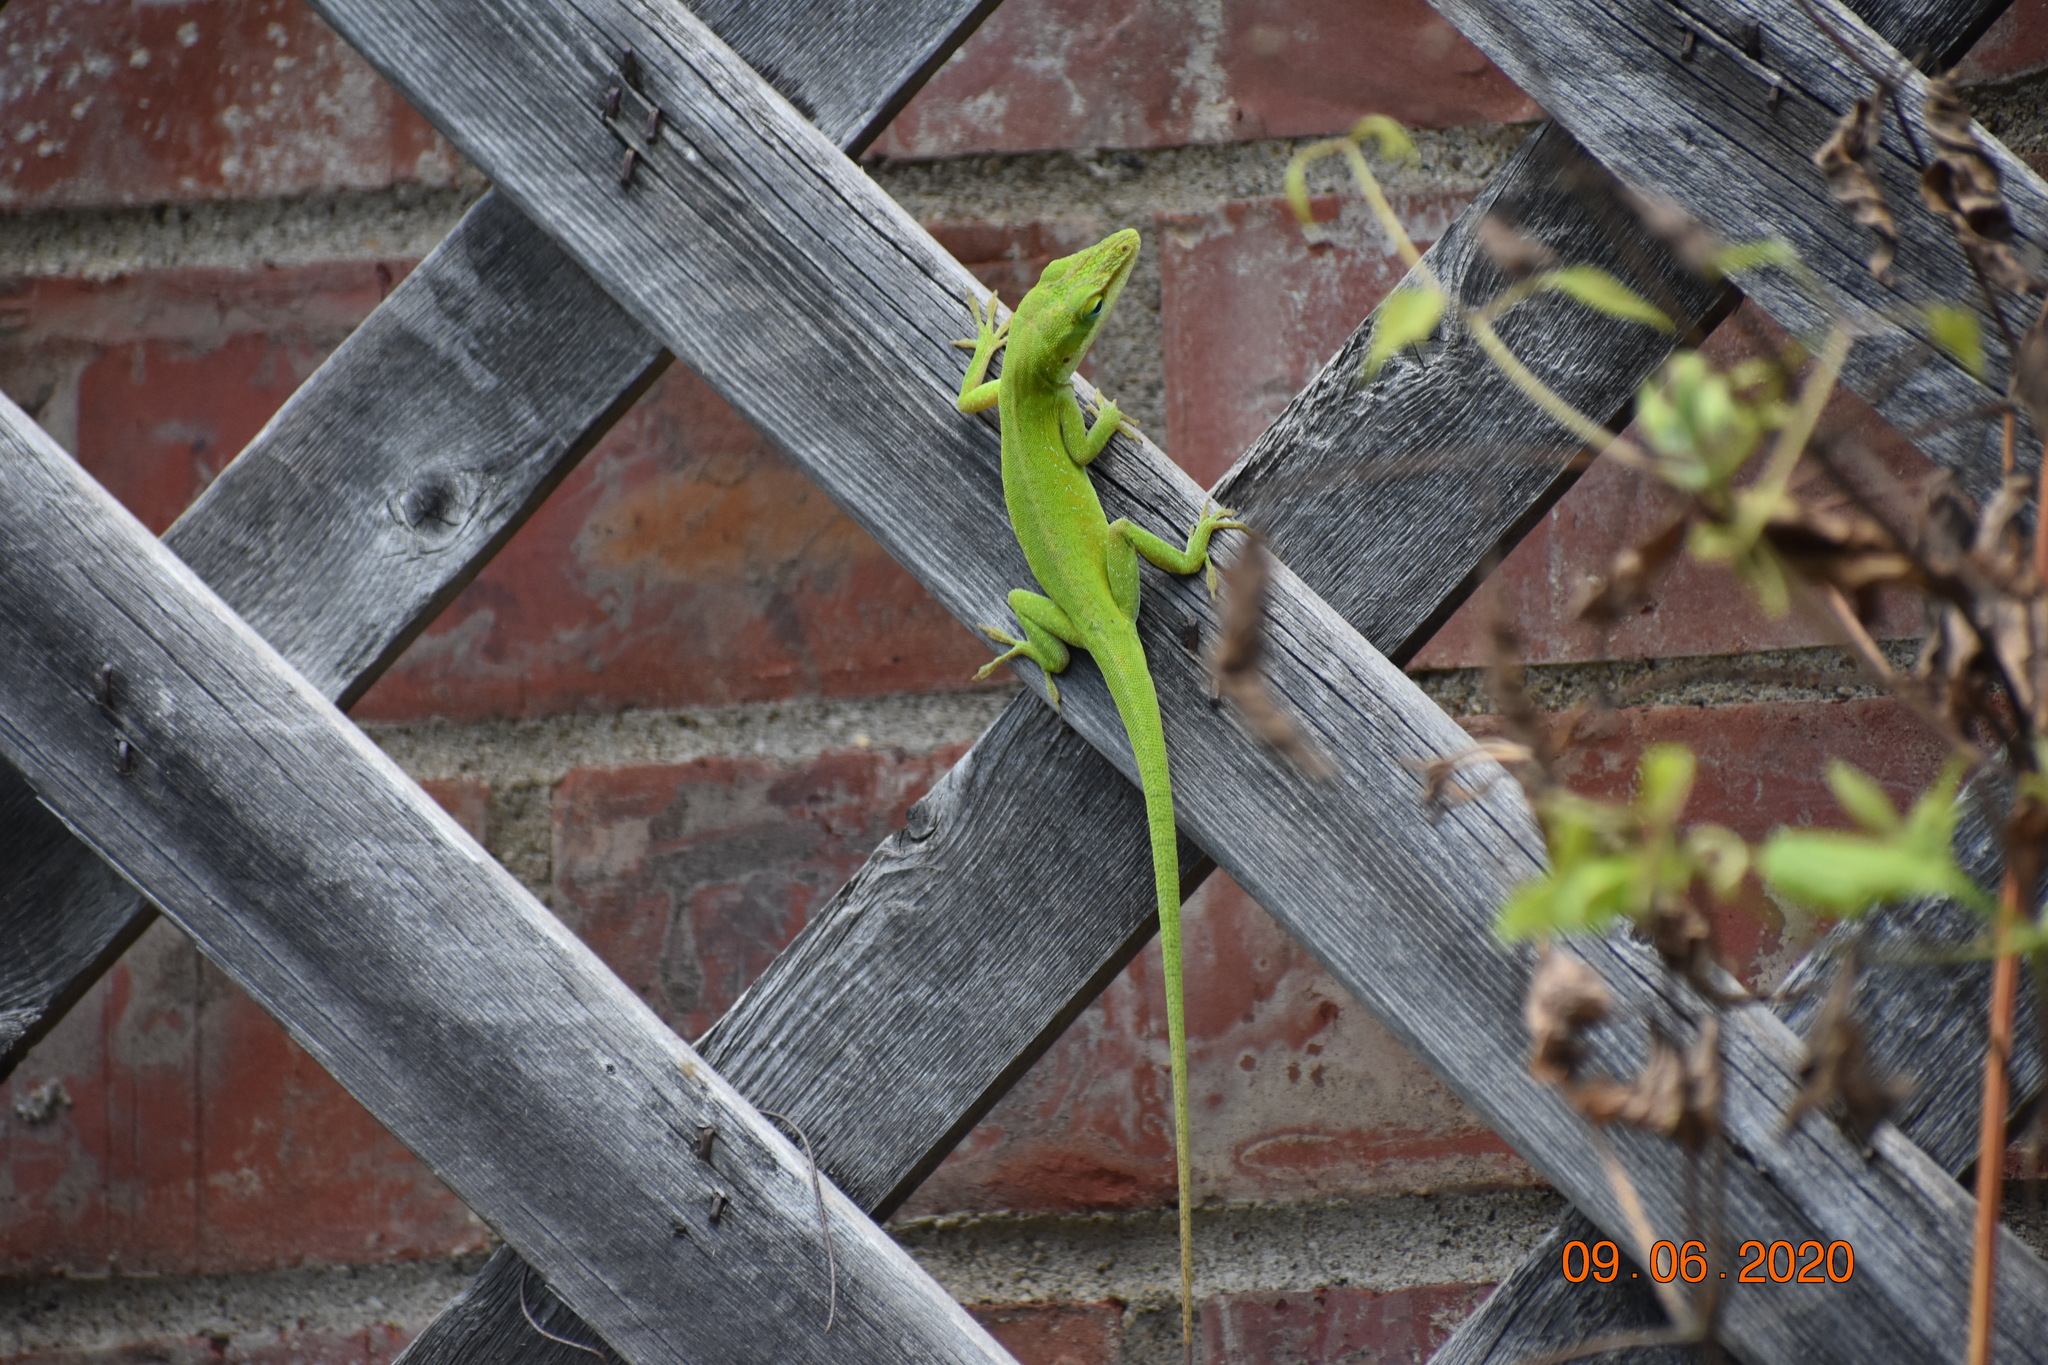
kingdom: Animalia
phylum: Chordata
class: Squamata
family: Dactyloidae
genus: Anolis
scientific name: Anolis carolinensis
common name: Green anole
